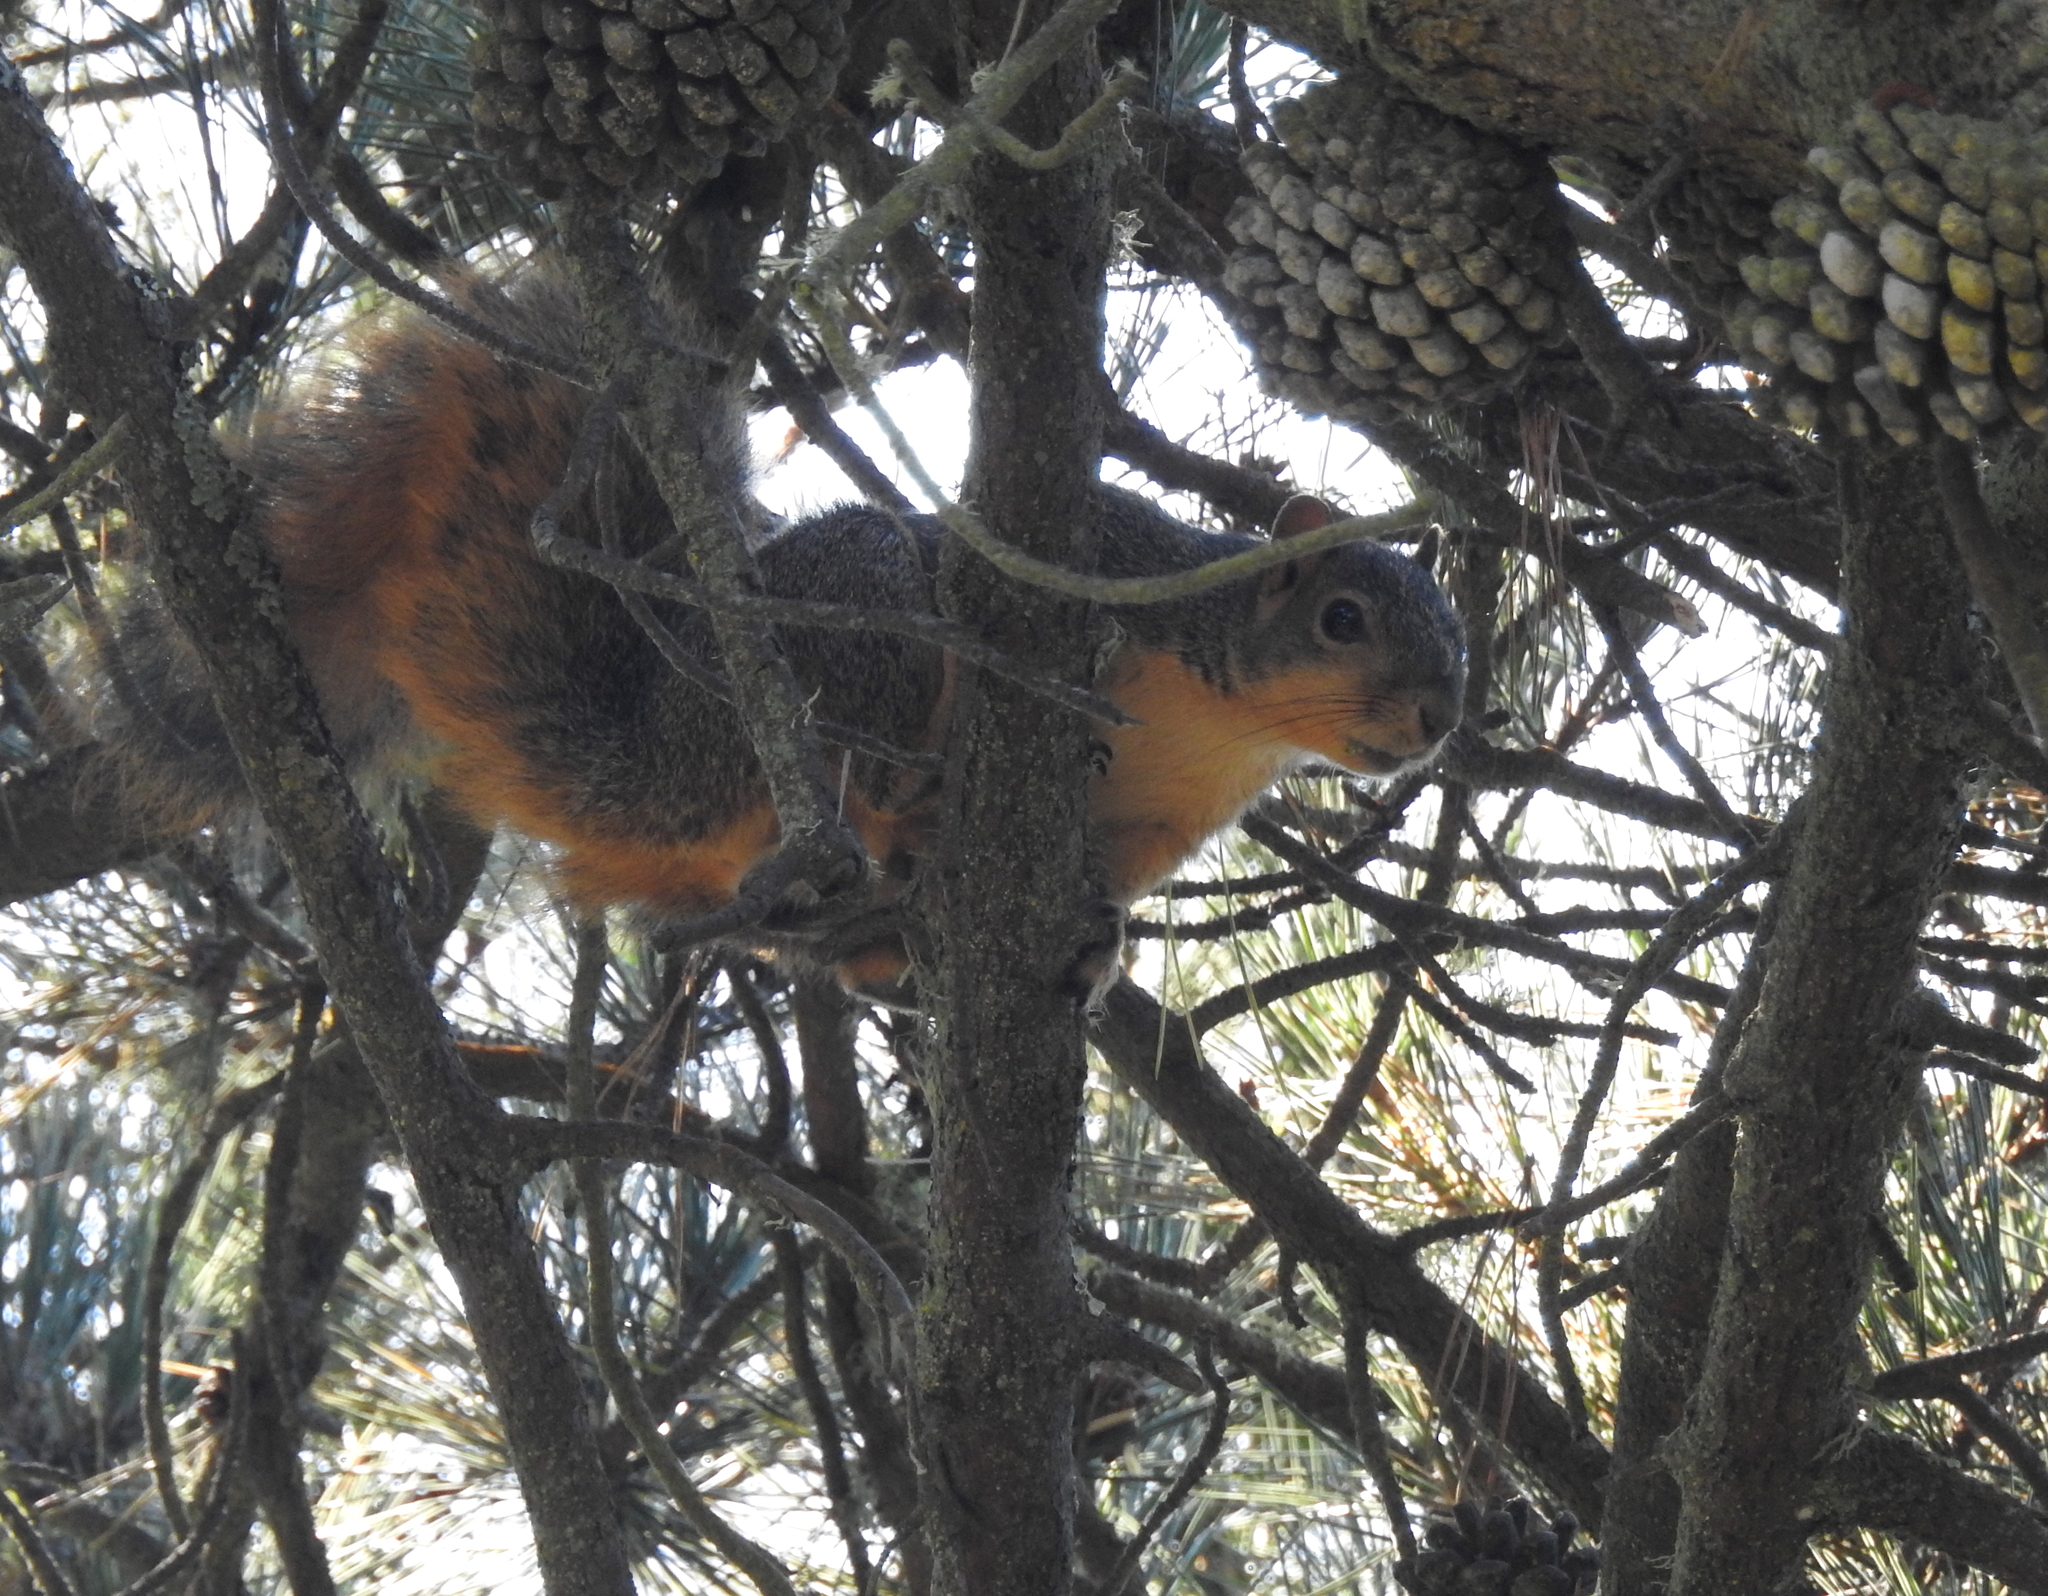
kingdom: Animalia
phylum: Chordata
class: Mammalia
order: Rodentia
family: Sciuridae
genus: Sciurus
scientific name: Sciurus niger
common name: Fox squirrel
